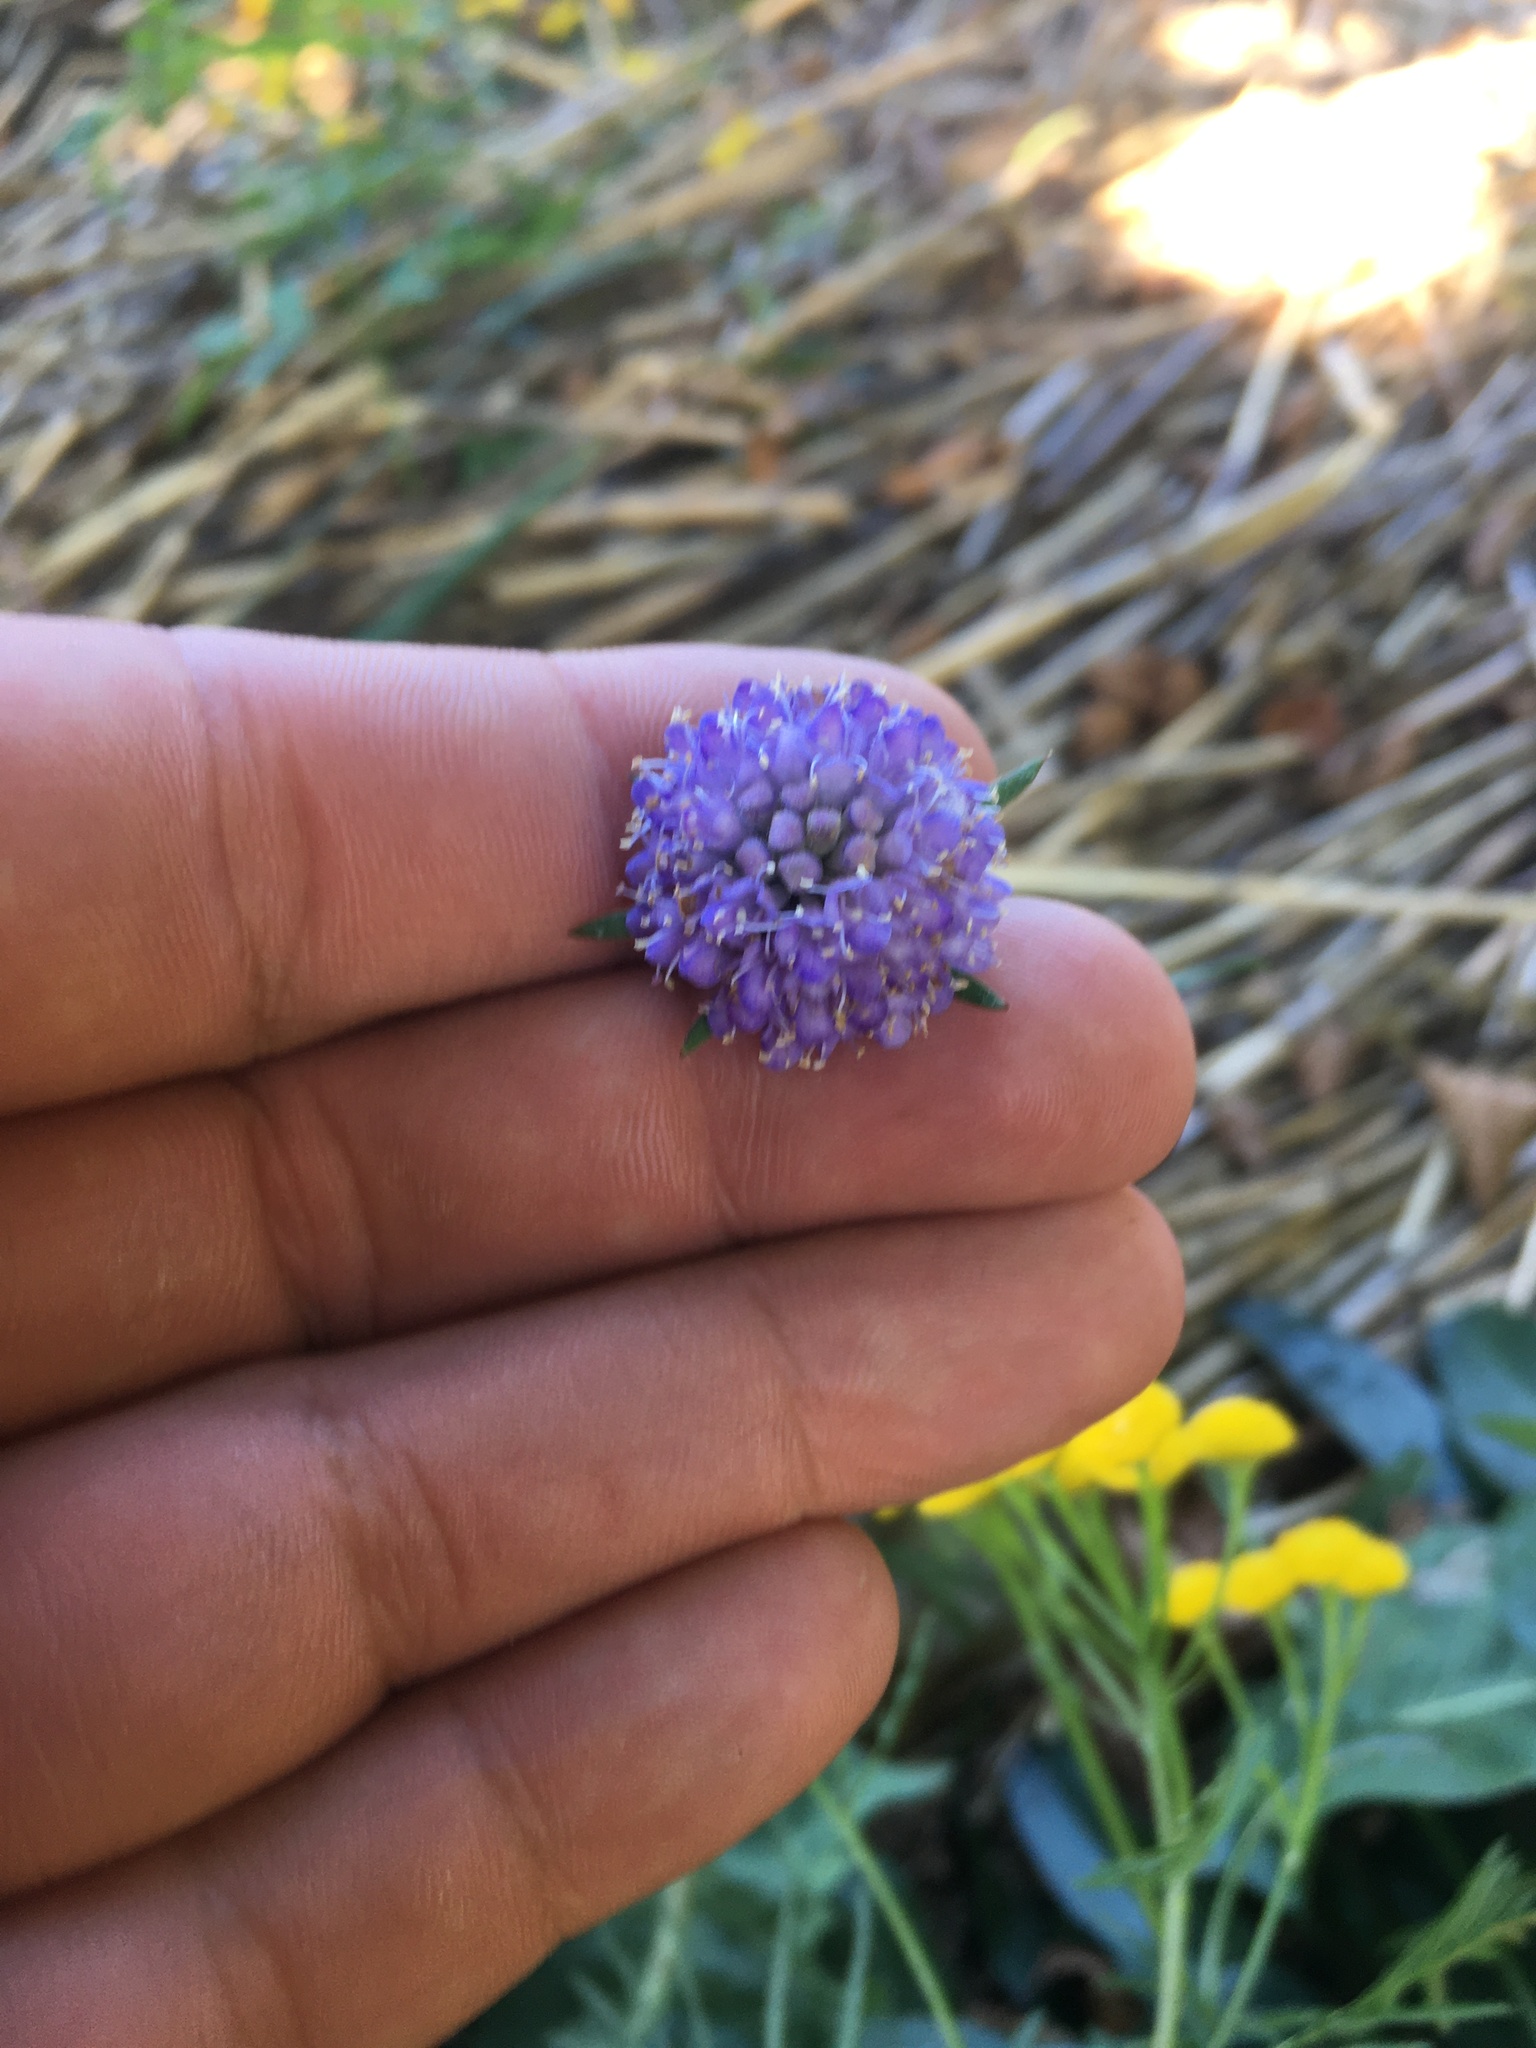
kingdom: Plantae
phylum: Tracheophyta
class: Magnoliopsida
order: Dipsacales
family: Caprifoliaceae
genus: Succisa
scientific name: Succisa pratensis
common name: Devil's-bit
